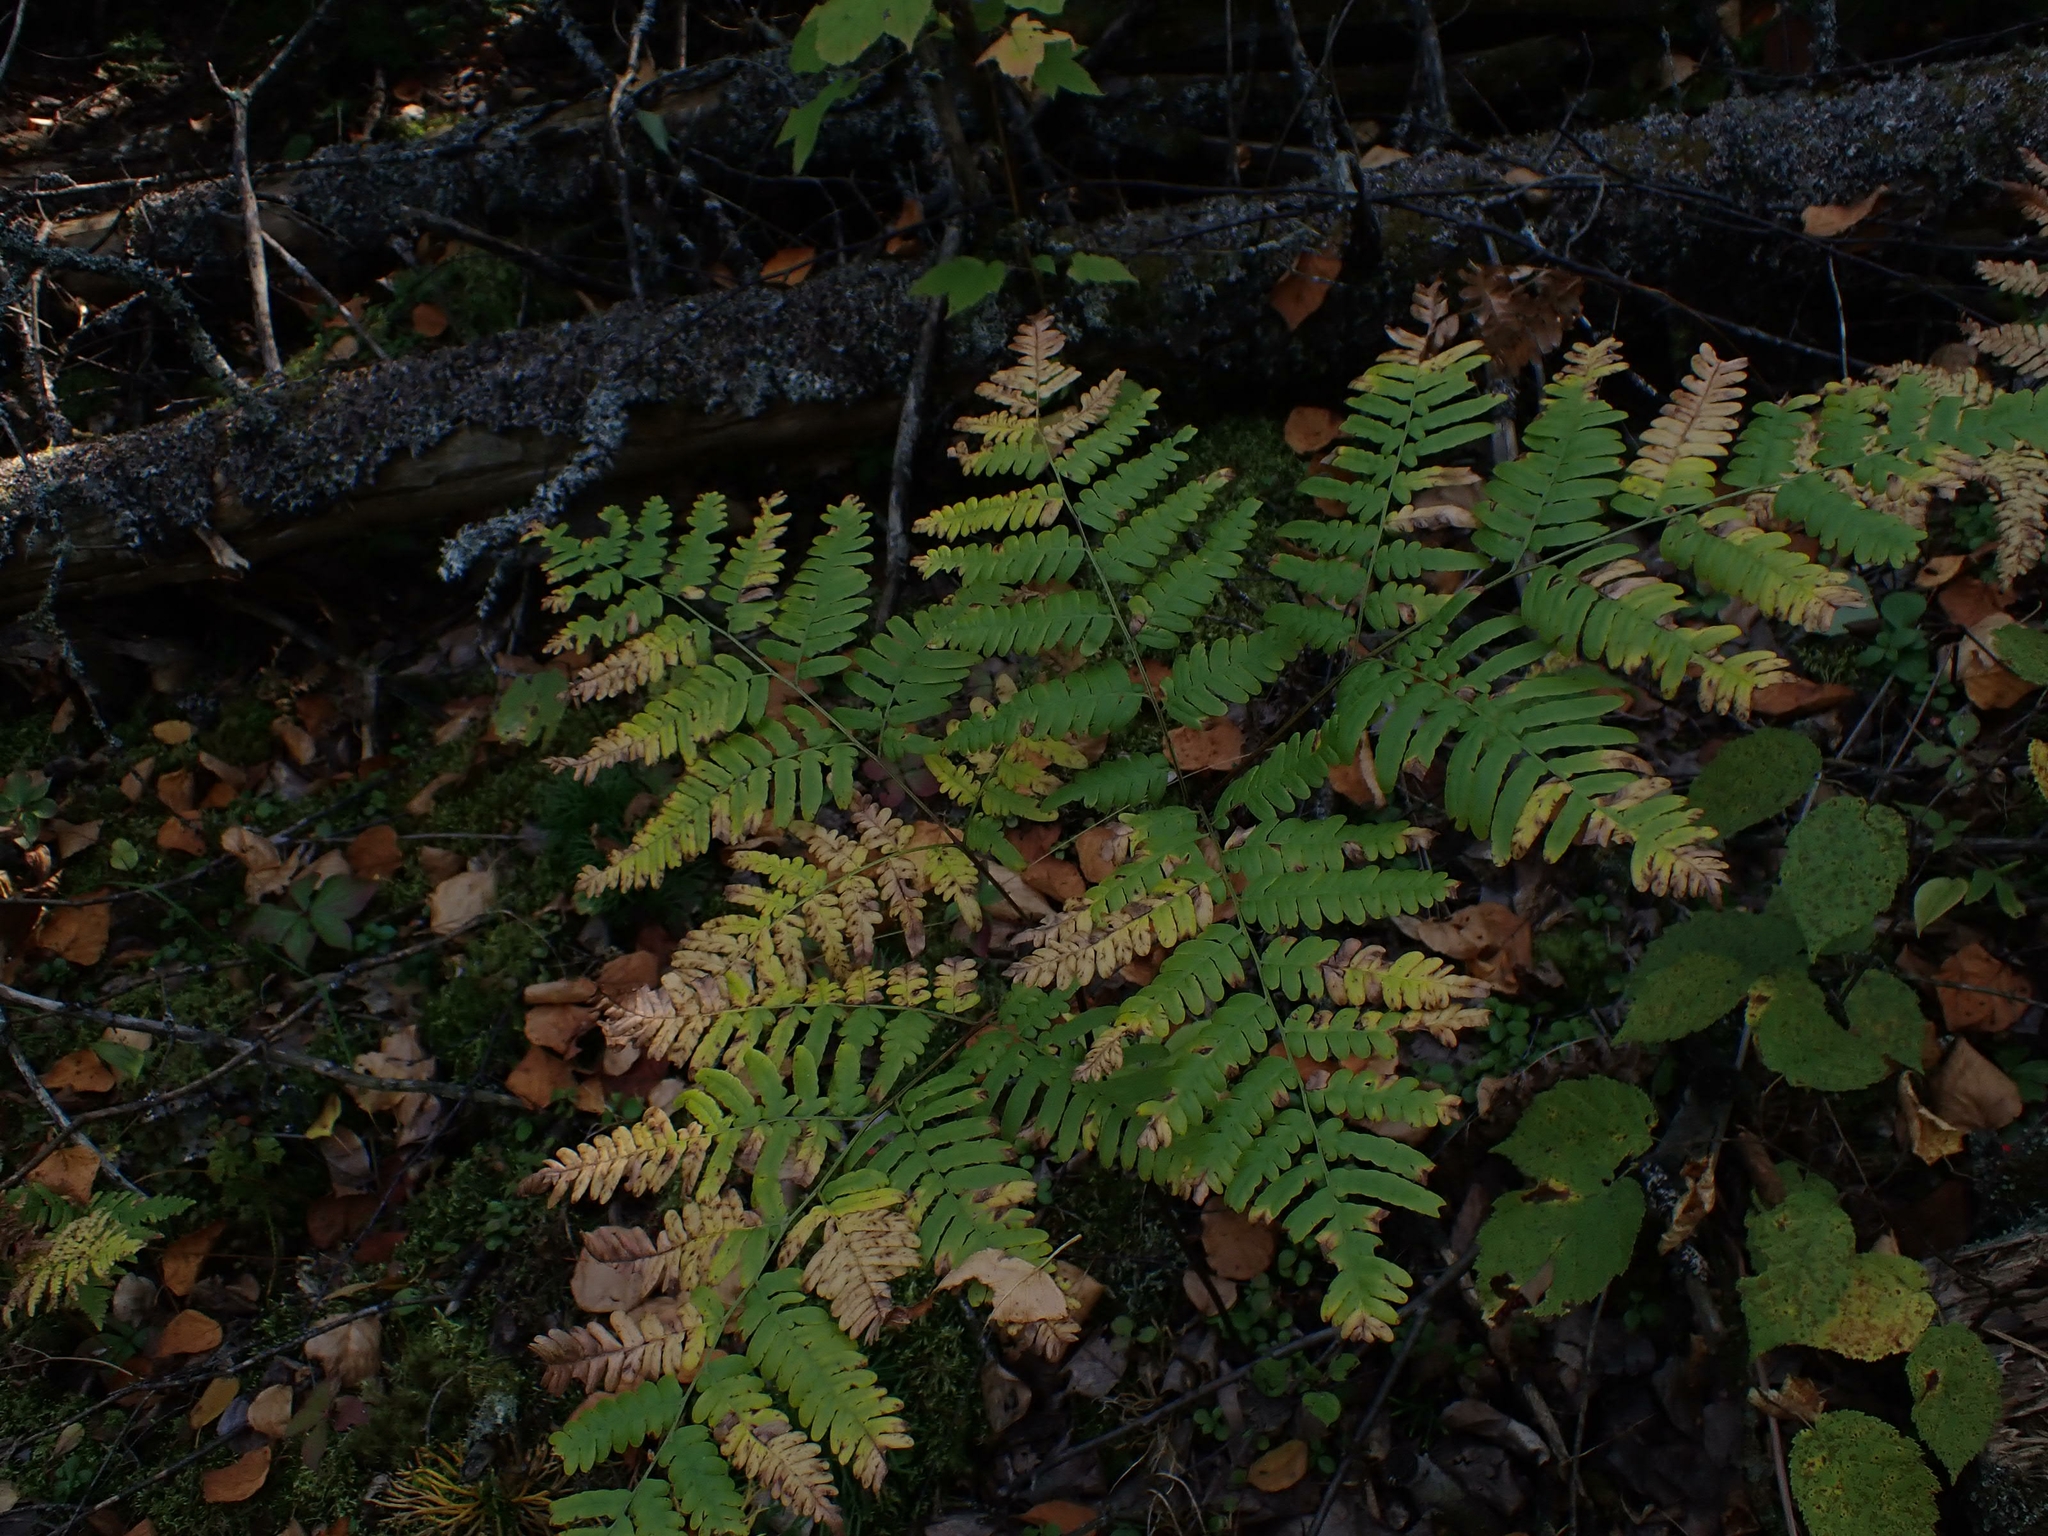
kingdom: Plantae
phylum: Tracheophyta
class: Polypodiopsida
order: Polypodiales
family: Dennstaedtiaceae
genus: Pteridium
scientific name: Pteridium aquilinum
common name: Bracken
